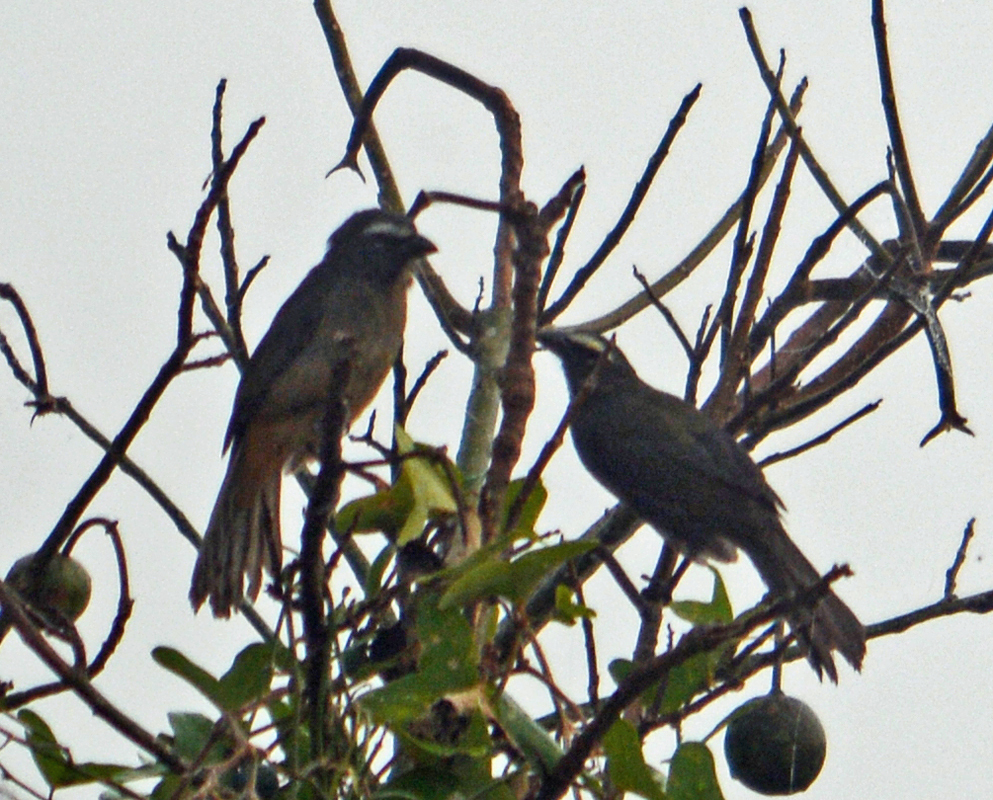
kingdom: Animalia
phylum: Chordata
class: Aves
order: Passeriformes
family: Thraupidae
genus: Saltator
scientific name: Saltator grandis
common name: Cinnamon-bellied saltator
